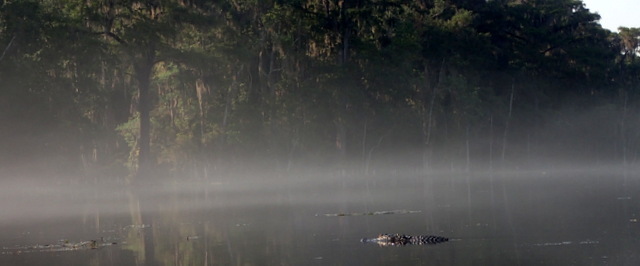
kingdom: Animalia
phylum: Chordata
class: Crocodylia
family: Alligatoridae
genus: Alligator
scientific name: Alligator mississippiensis
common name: American alligator
